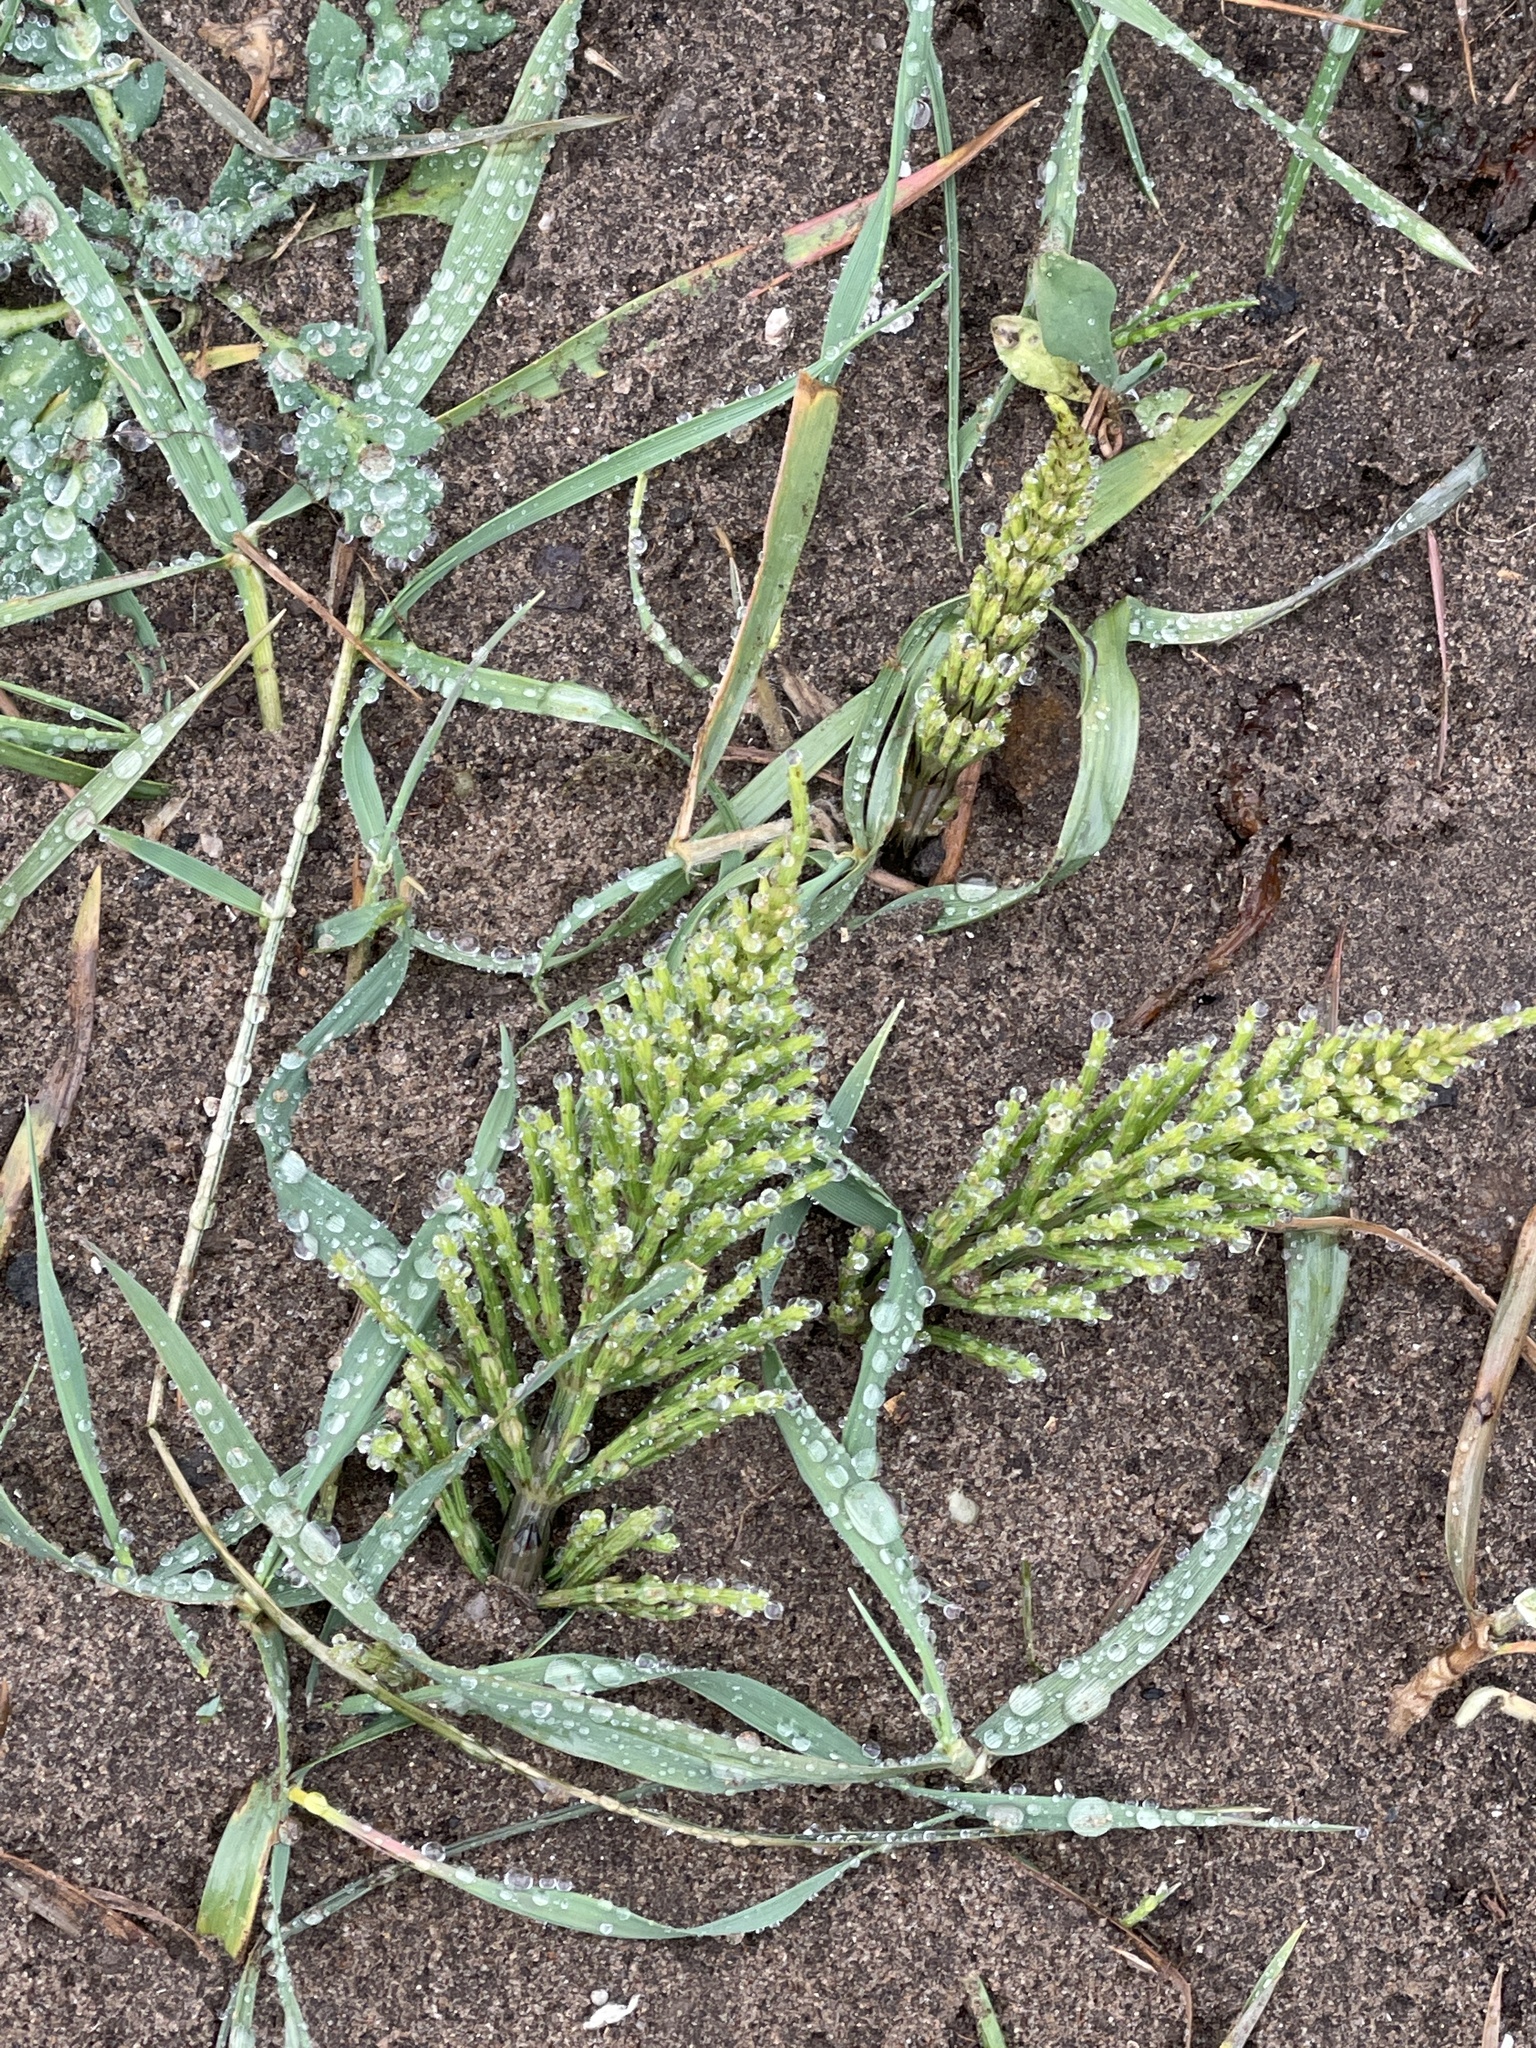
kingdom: Plantae
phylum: Tracheophyta
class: Polypodiopsida
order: Equisetales
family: Equisetaceae
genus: Equisetum
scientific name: Equisetum arvense
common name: Field horsetail
